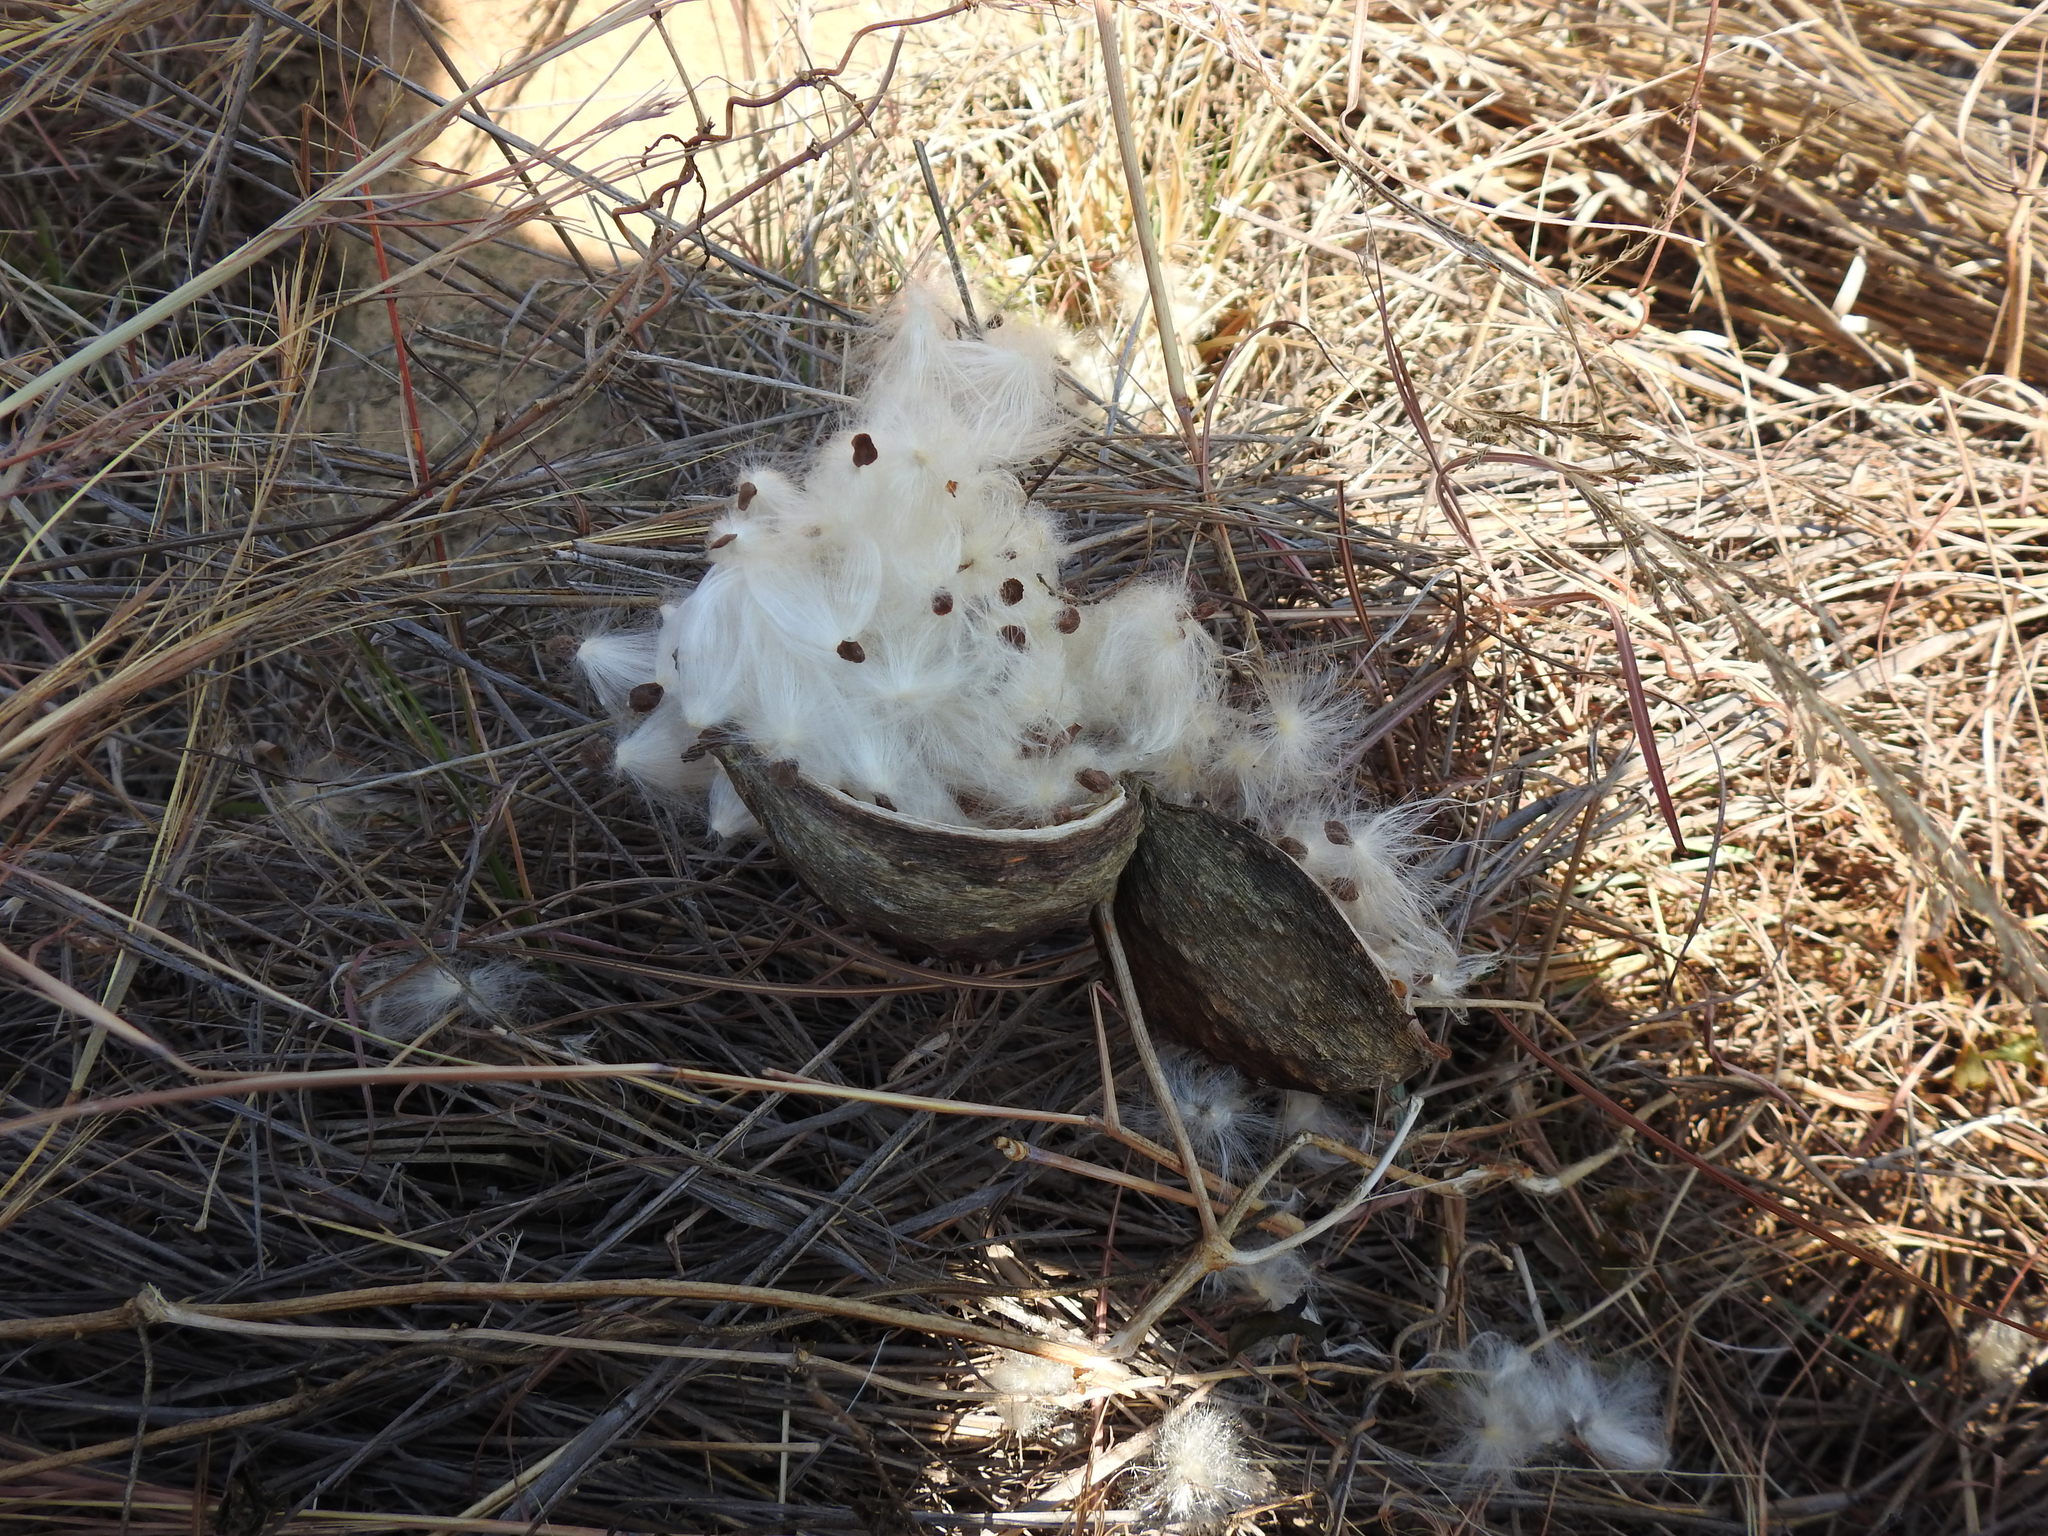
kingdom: Plantae
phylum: Tracheophyta
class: Magnoliopsida
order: Gentianales
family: Apocynaceae
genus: Cynanchum
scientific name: Cynanchum
